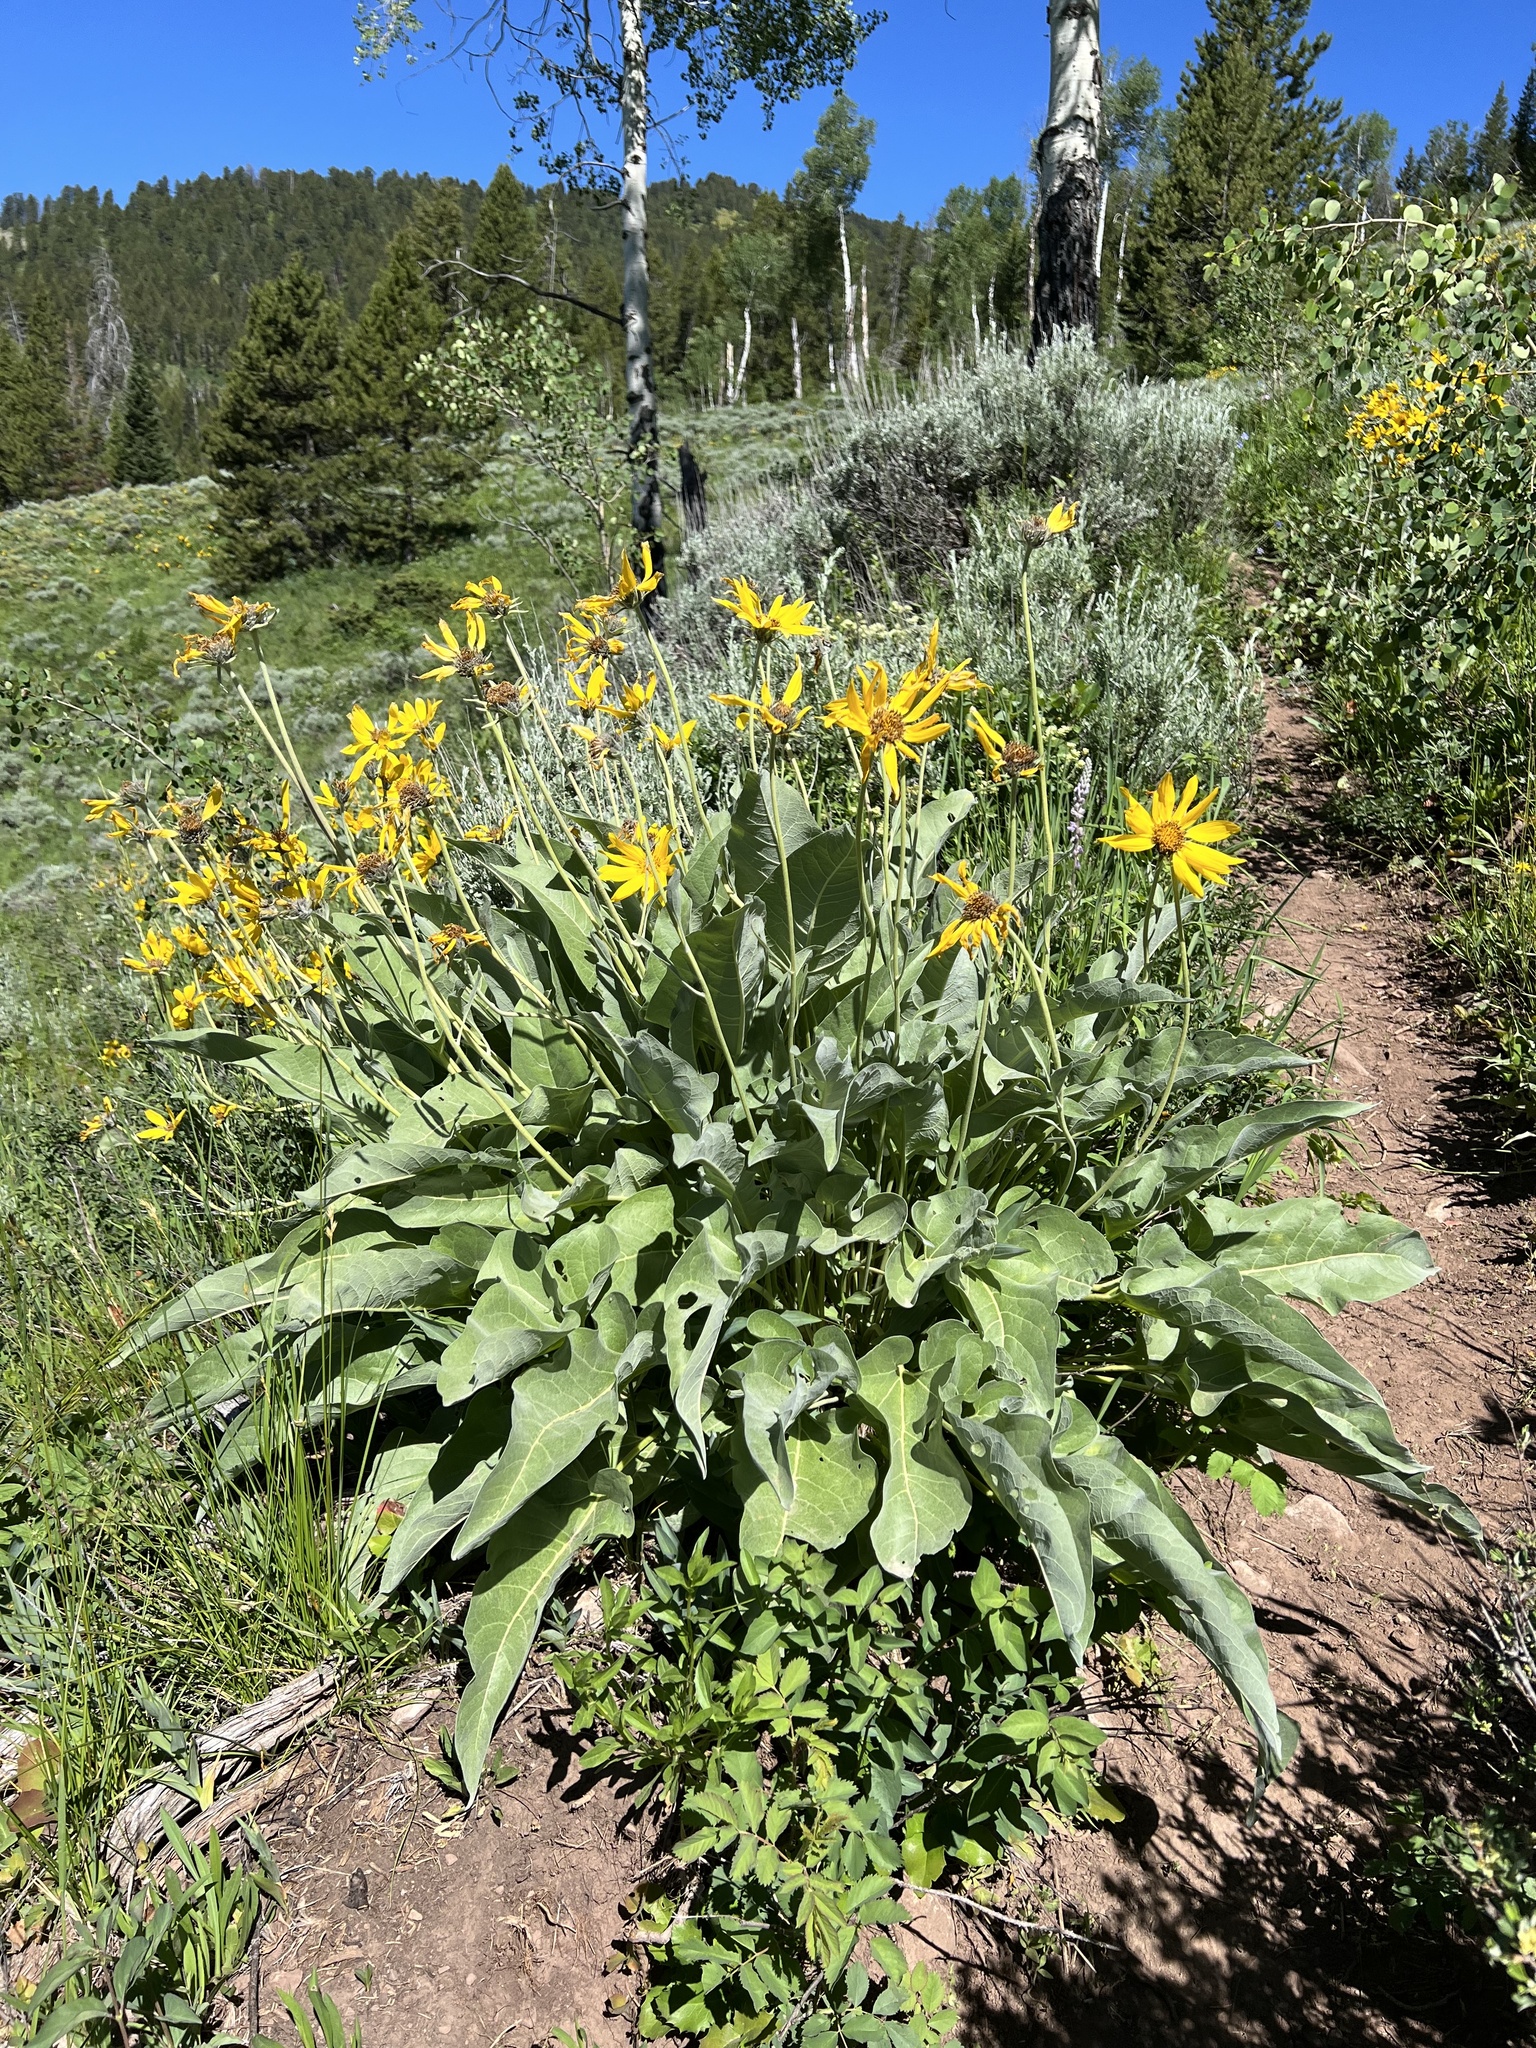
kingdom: Plantae
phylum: Tracheophyta
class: Magnoliopsida
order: Asterales
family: Asteraceae
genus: Wyethia
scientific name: Wyethia sagittata
